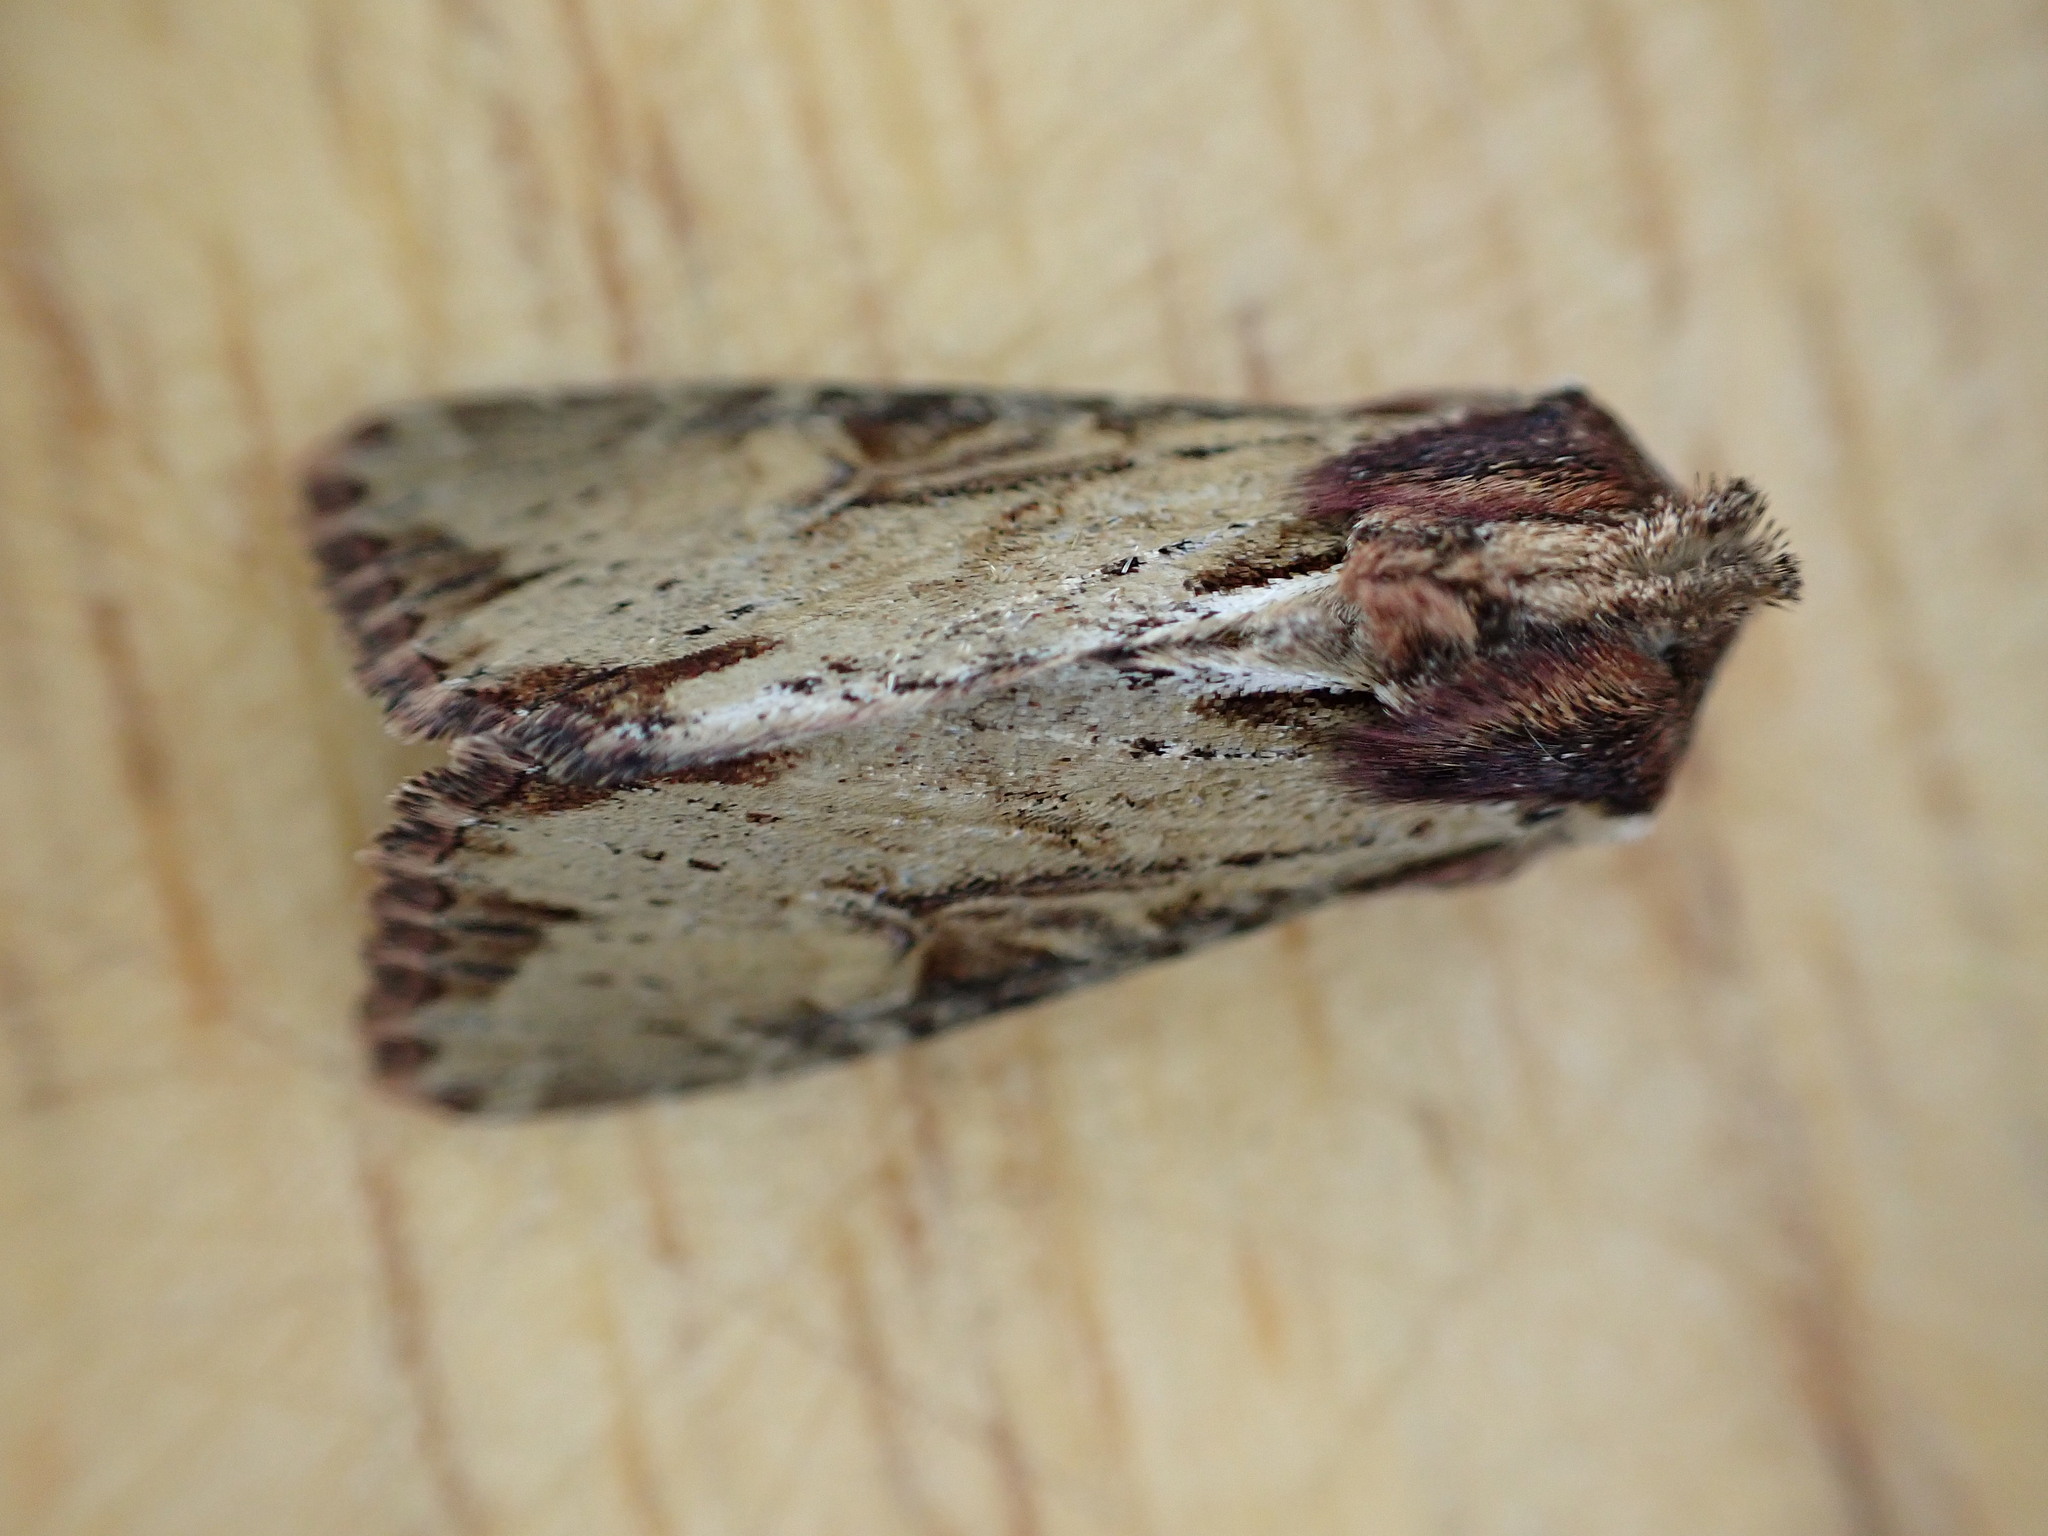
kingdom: Animalia
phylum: Arthropoda
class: Insecta
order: Lepidoptera
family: Noctuidae
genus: Apamea
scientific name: Apamea crenata
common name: Clouded-bordered brindle
